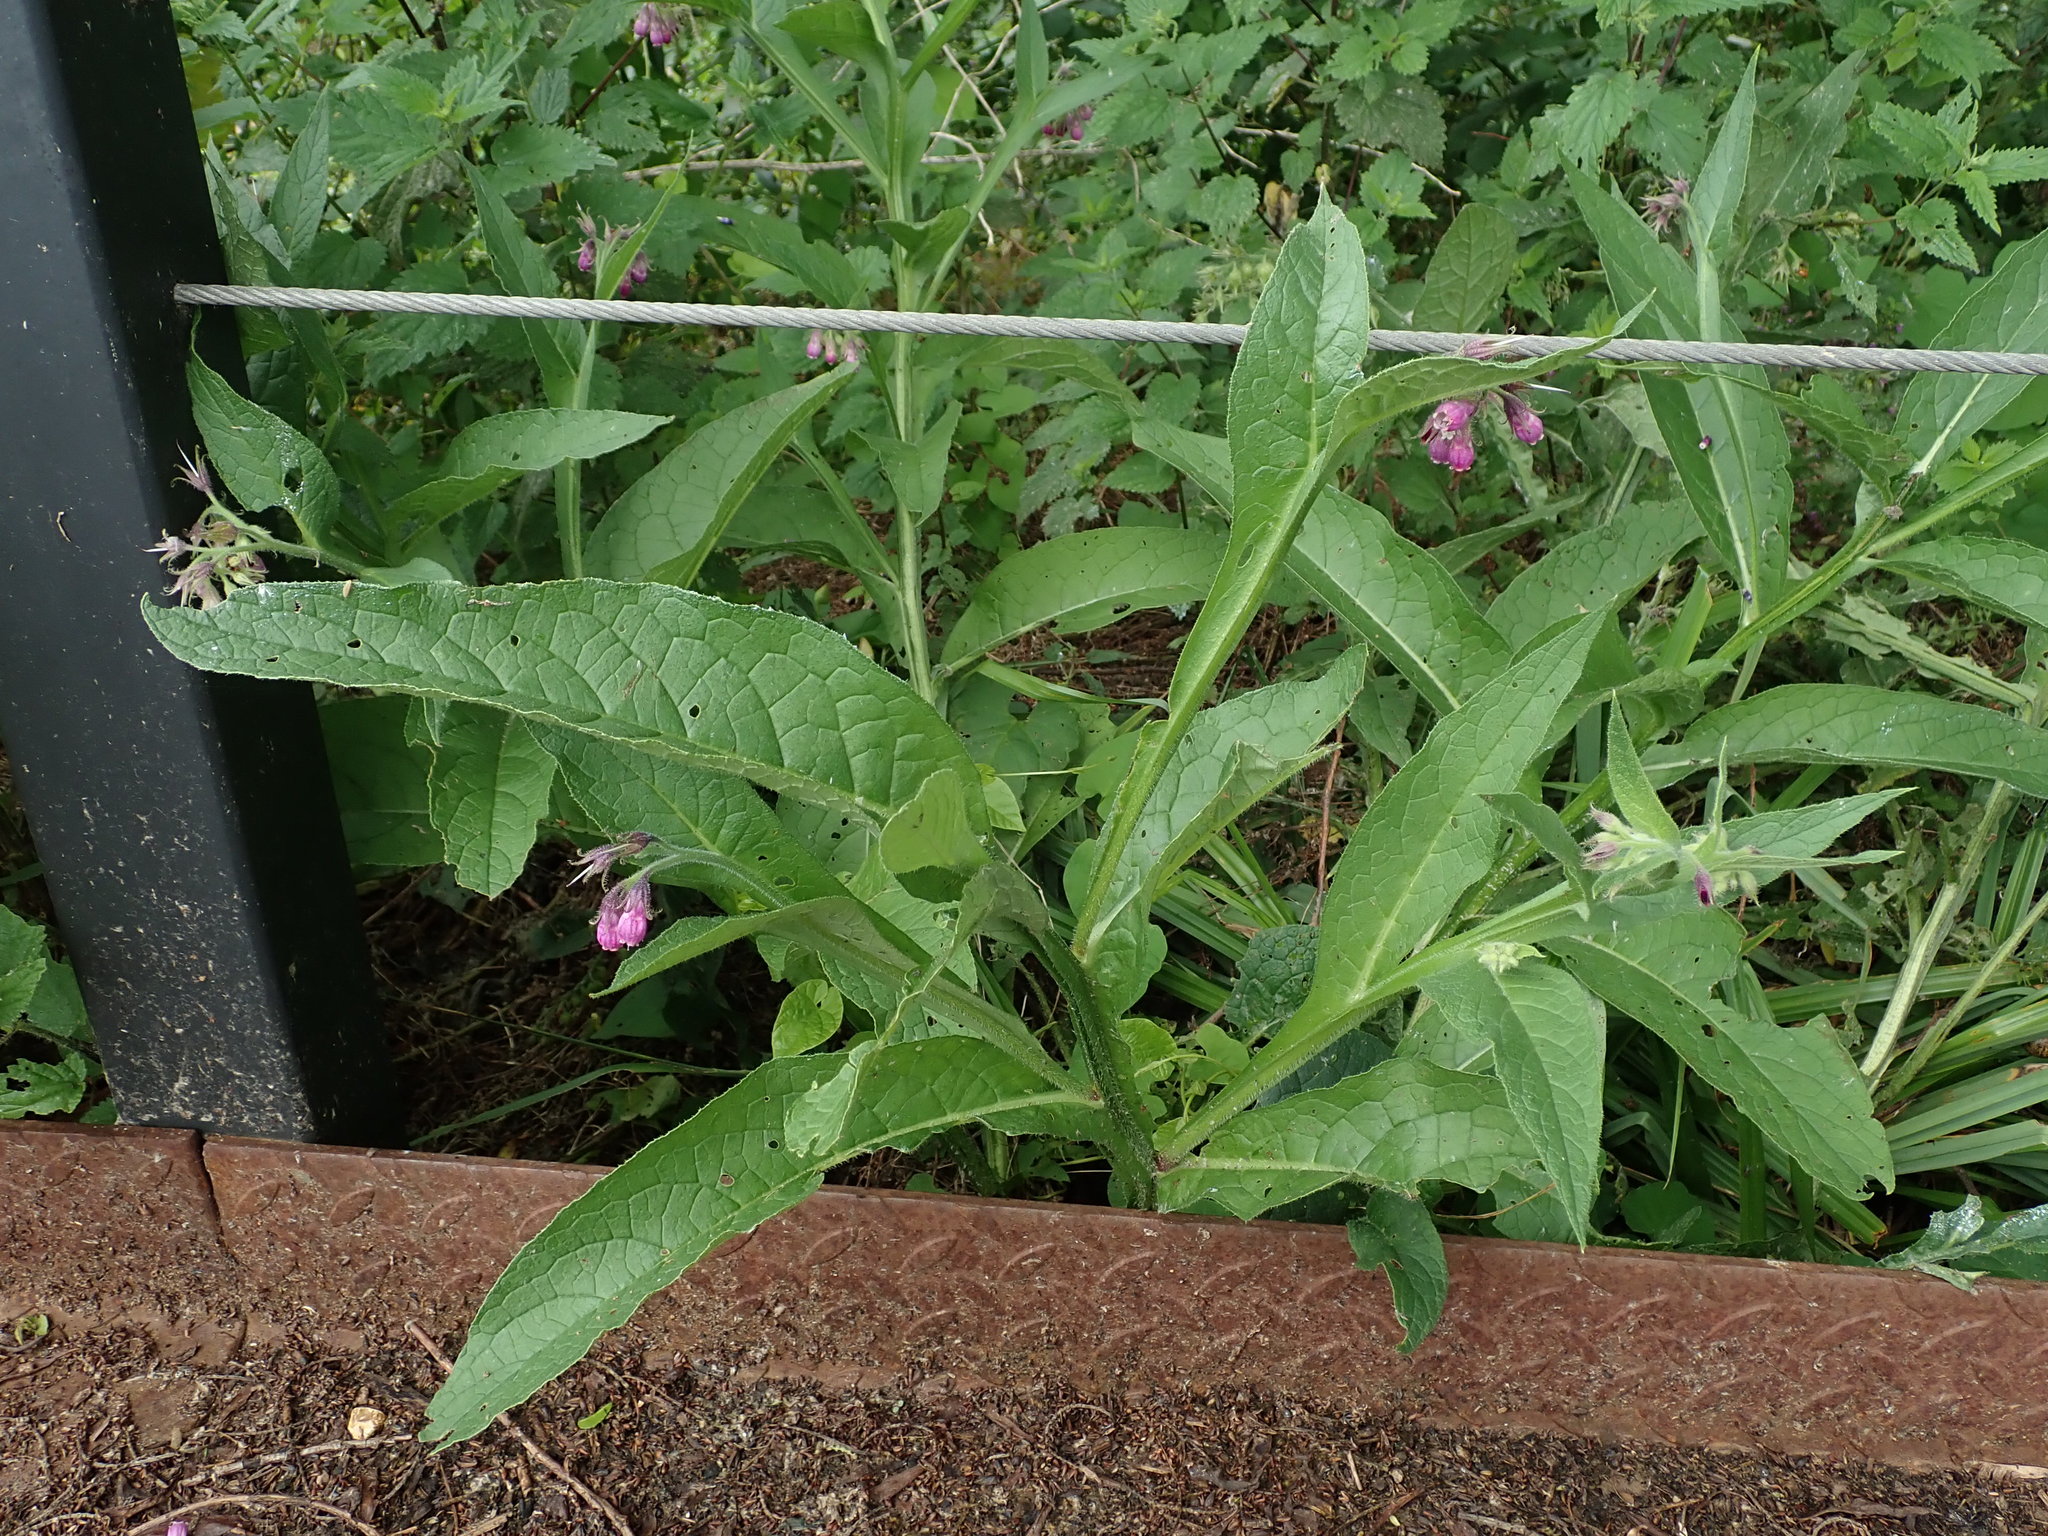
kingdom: Plantae
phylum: Tracheophyta
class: Magnoliopsida
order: Boraginales
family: Boraginaceae
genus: Symphytum
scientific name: Symphytum officinale
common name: Common comfrey
